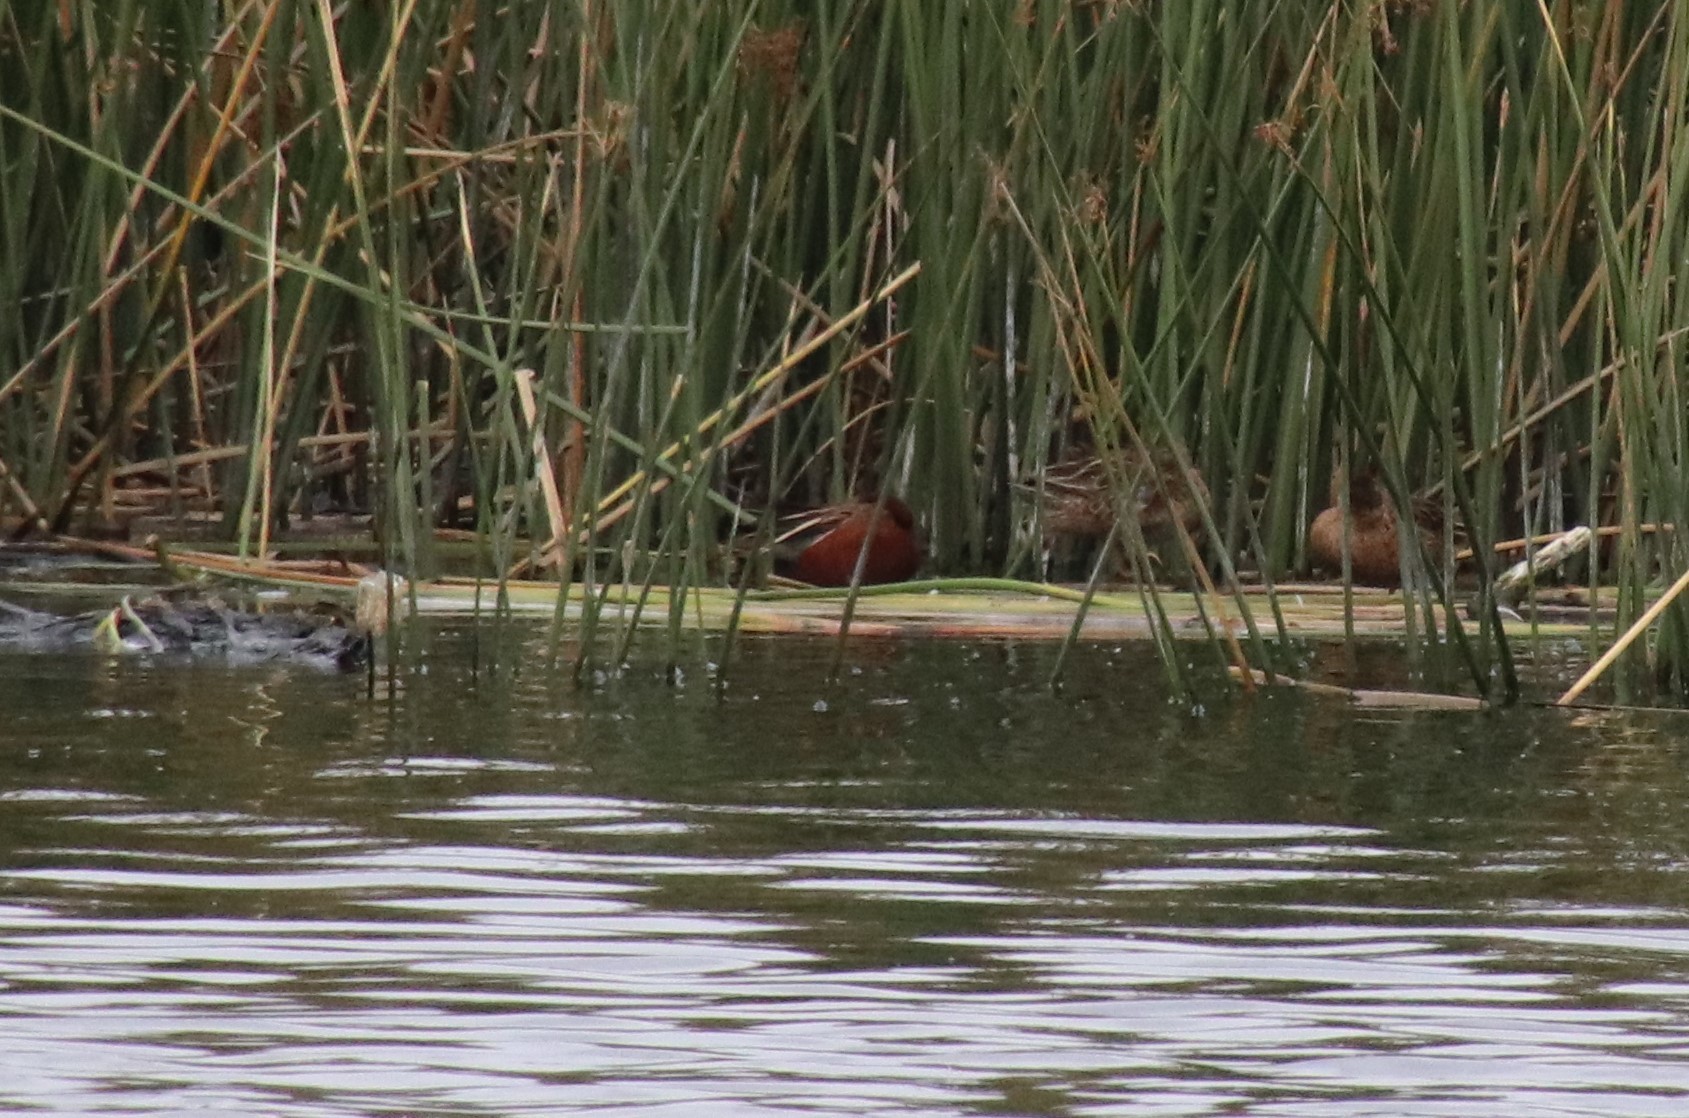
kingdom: Animalia
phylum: Chordata
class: Aves
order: Anseriformes
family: Anatidae
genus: Spatula
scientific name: Spatula cyanoptera
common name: Cinnamon teal
